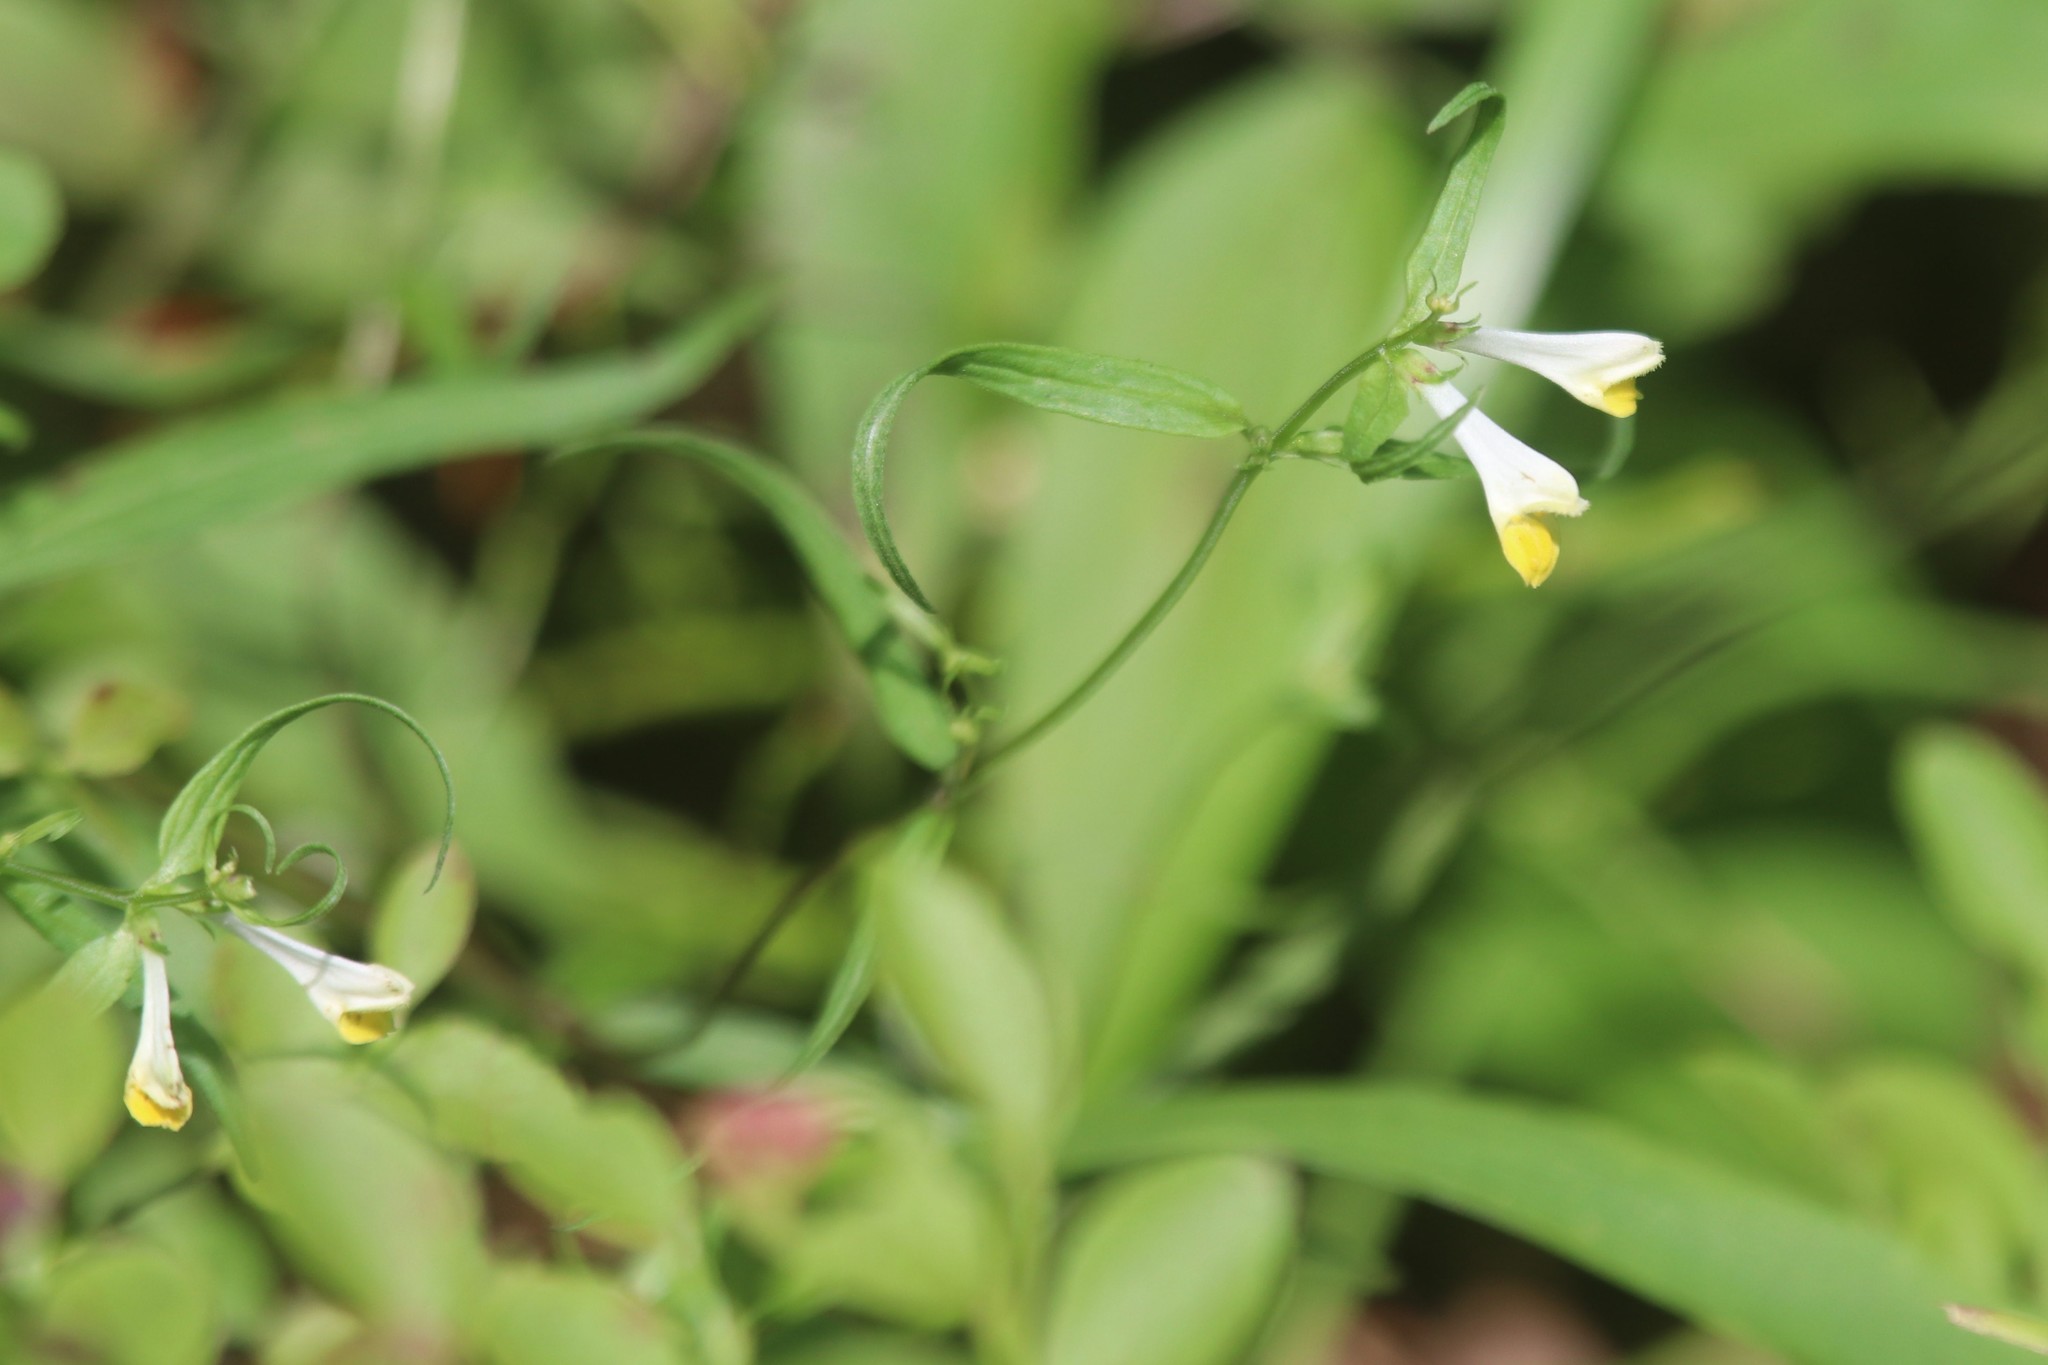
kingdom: Plantae
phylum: Tracheophyta
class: Magnoliopsida
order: Lamiales
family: Orobanchaceae
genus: Melampyrum
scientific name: Melampyrum pratense
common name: Common cow-wheat
